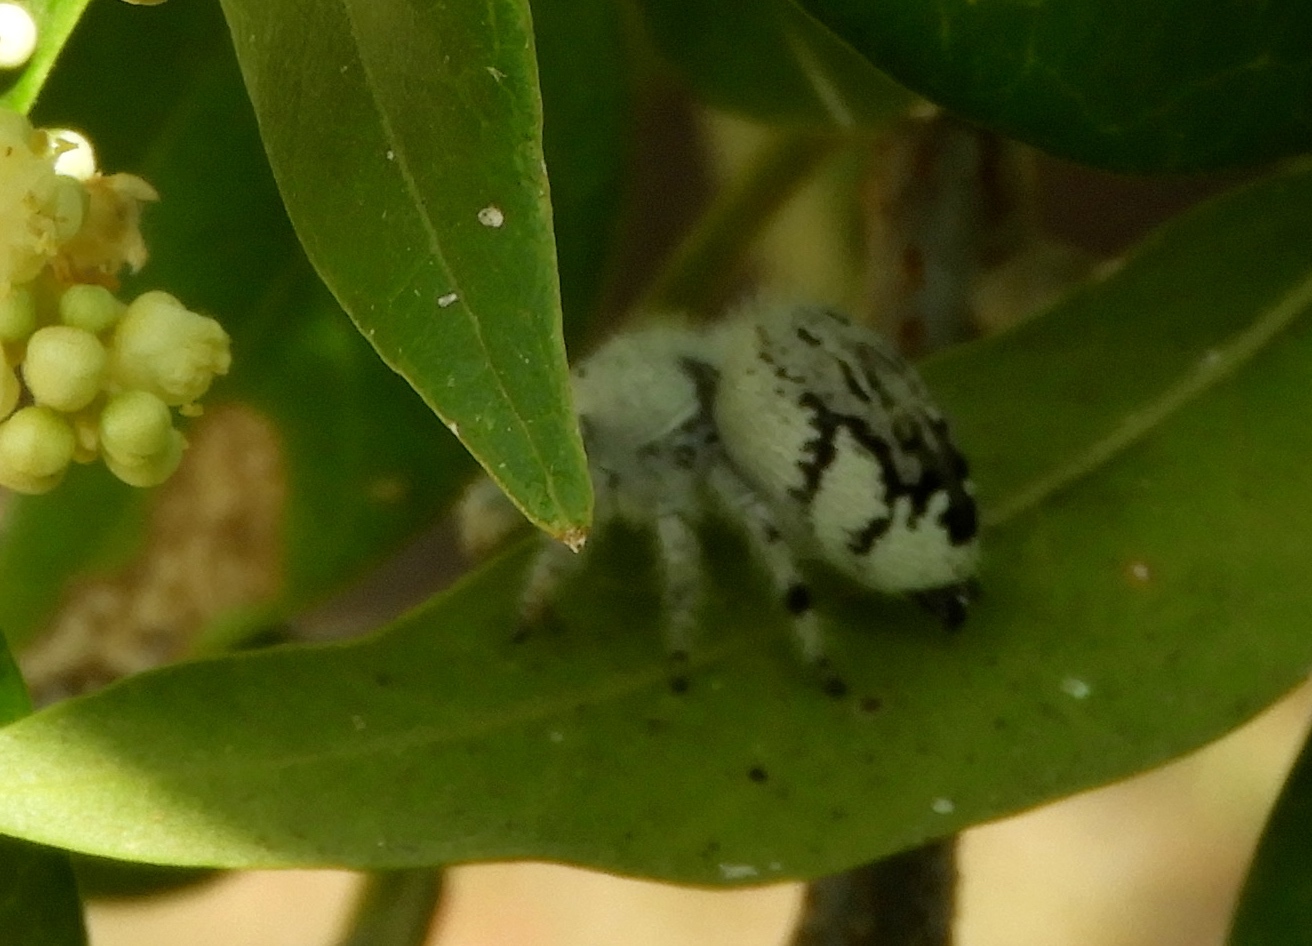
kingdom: Animalia
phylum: Arthropoda
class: Arachnida
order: Araneae
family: Salticidae
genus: Paraphidippus
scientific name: Paraphidippus fartilis
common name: Jumping spiders
